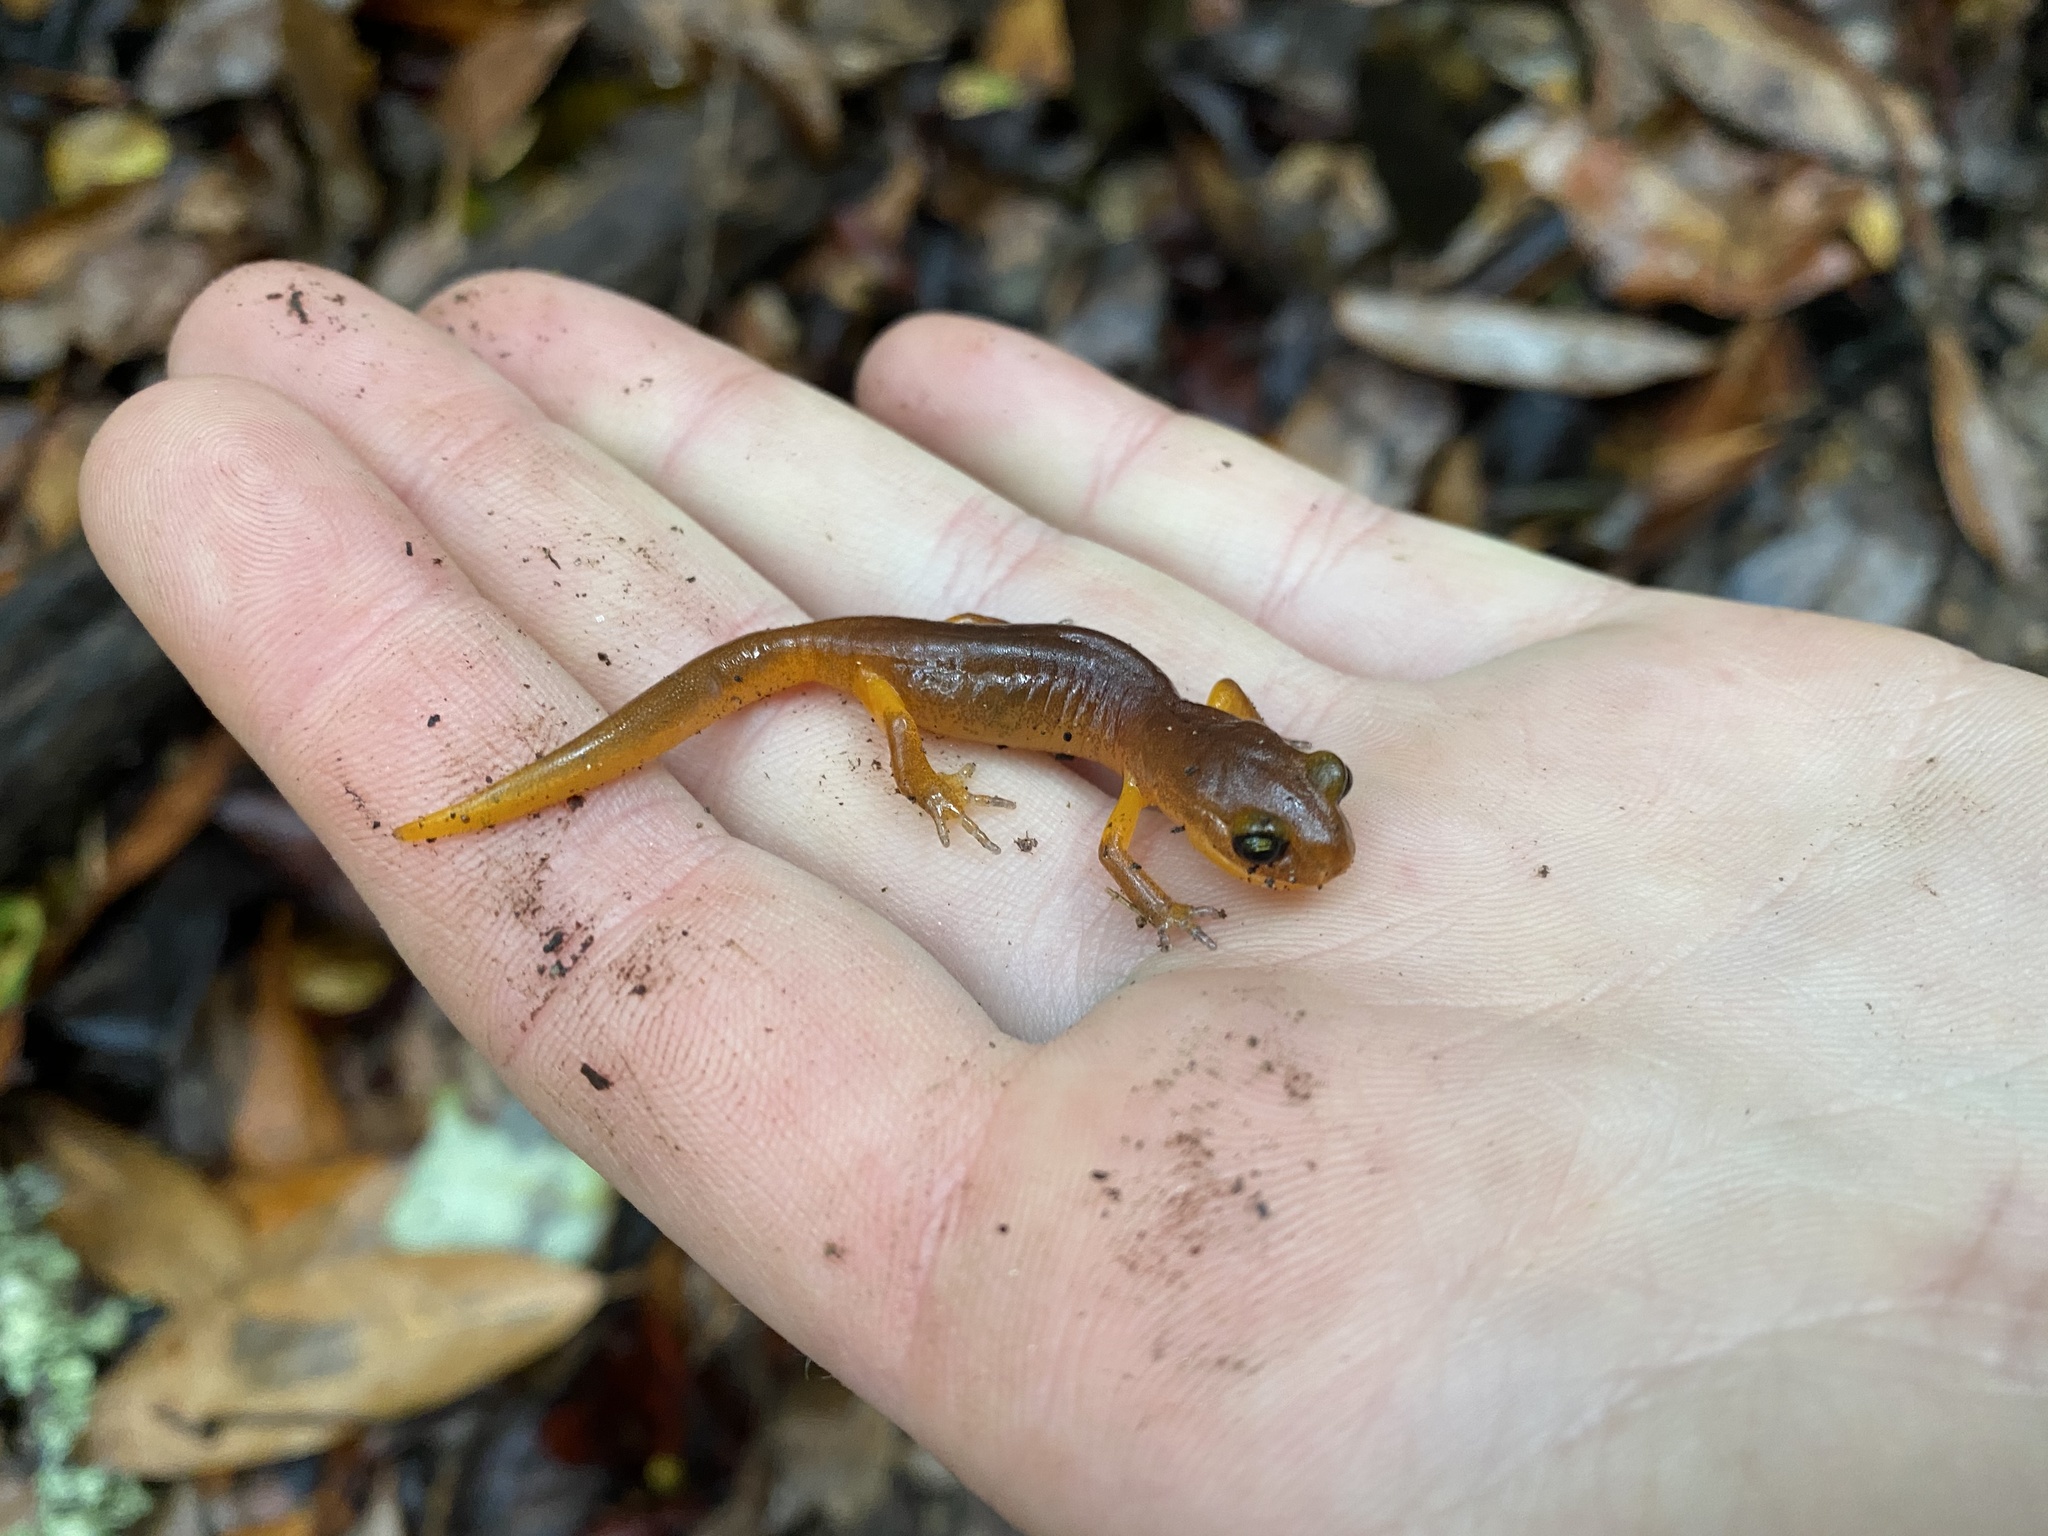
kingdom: Animalia
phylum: Chordata
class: Amphibia
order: Caudata
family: Plethodontidae
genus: Ensatina
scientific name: Ensatina eschscholtzii
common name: Ensatina
